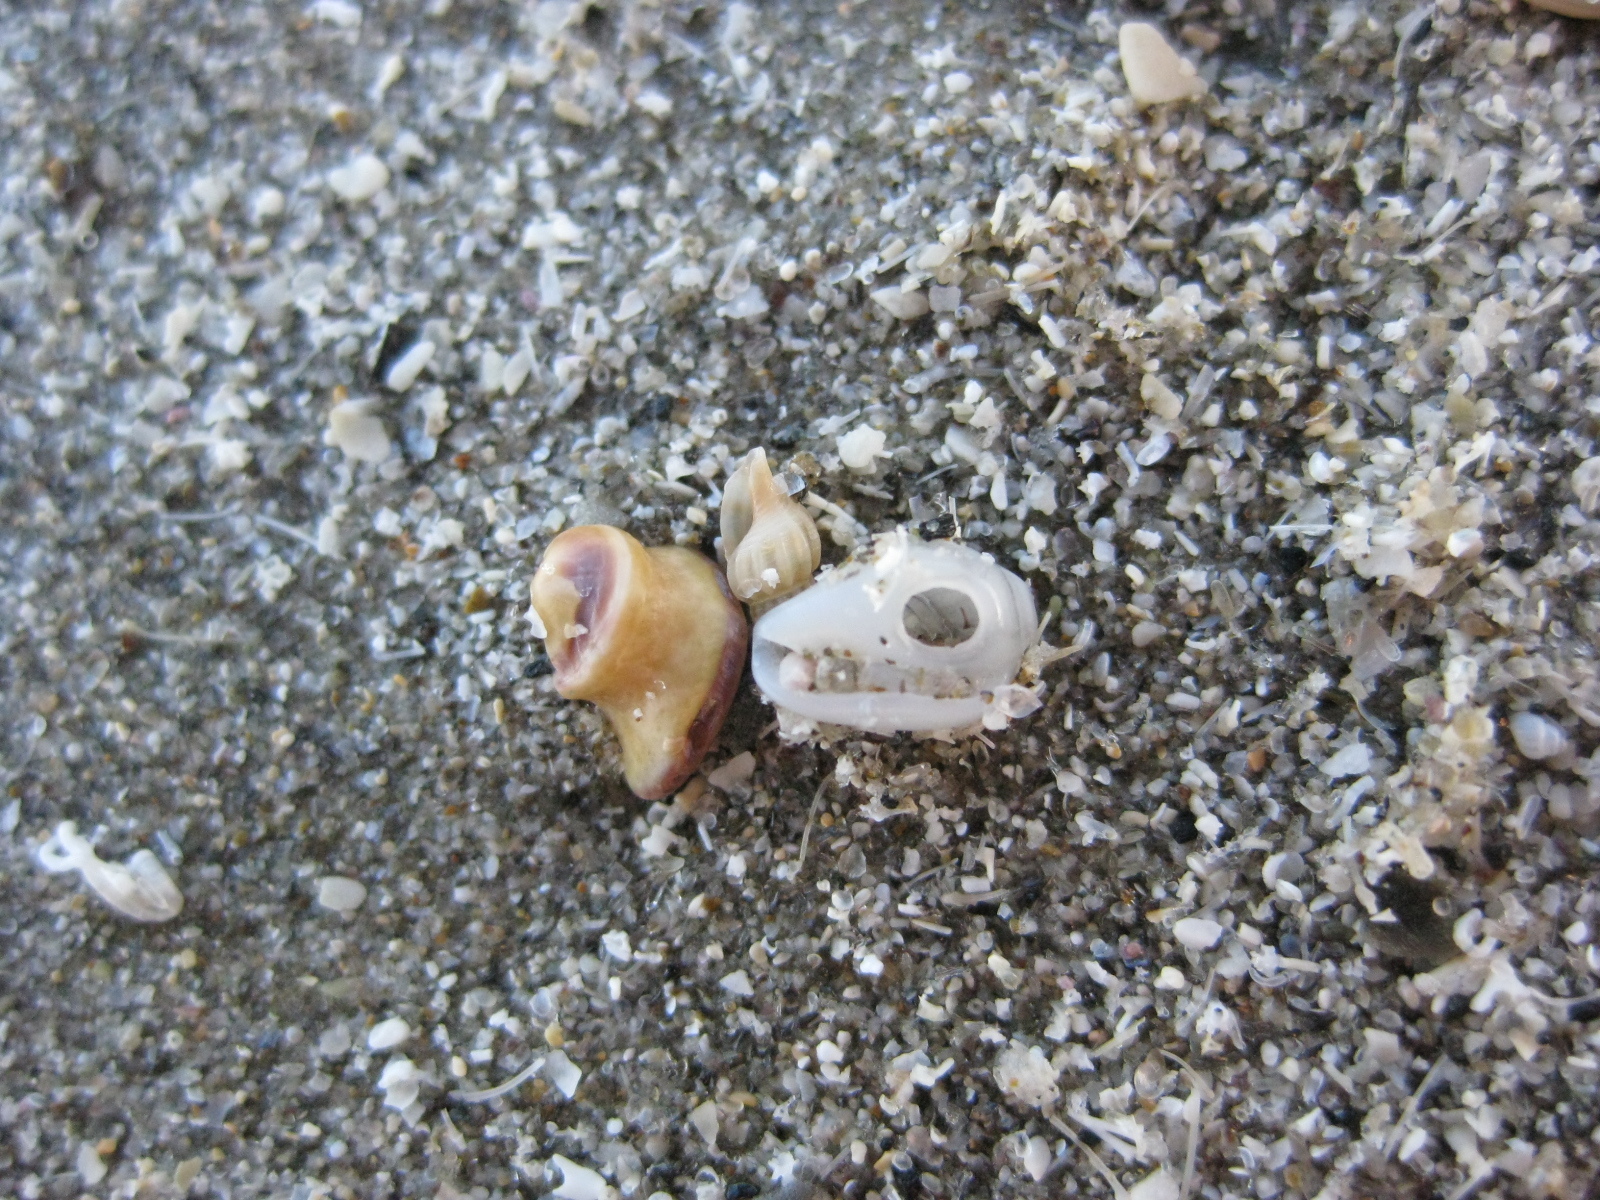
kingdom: Animalia
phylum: Mollusca
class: Gastropoda
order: Neogastropoda
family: Marginellidae
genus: Mesoginella
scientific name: Mesoginella koma
